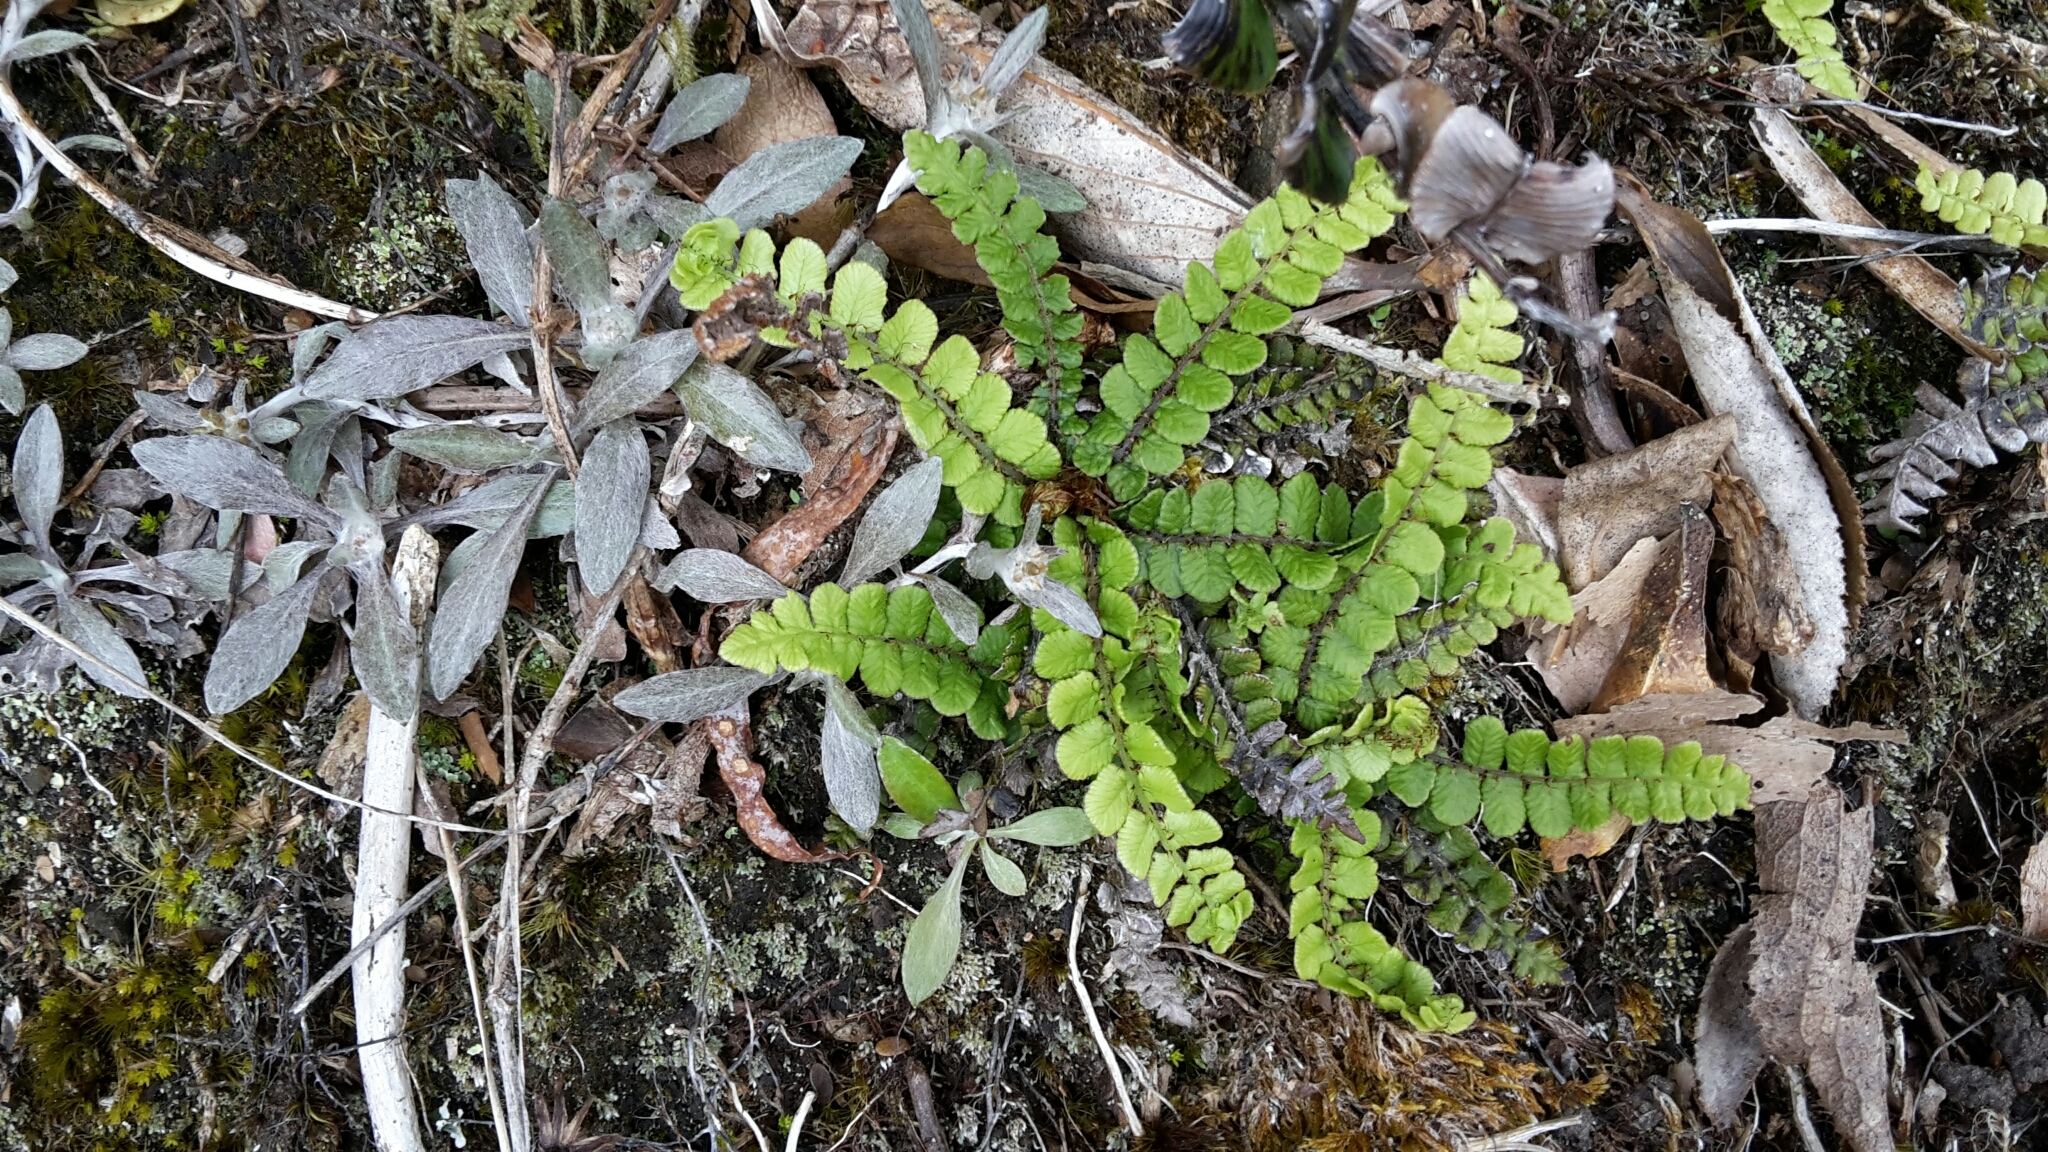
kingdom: Plantae
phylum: Tracheophyta
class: Polypodiopsida
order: Polypodiales
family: Blechnaceae
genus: Cranfillia
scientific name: Cranfillia fluviatilis
